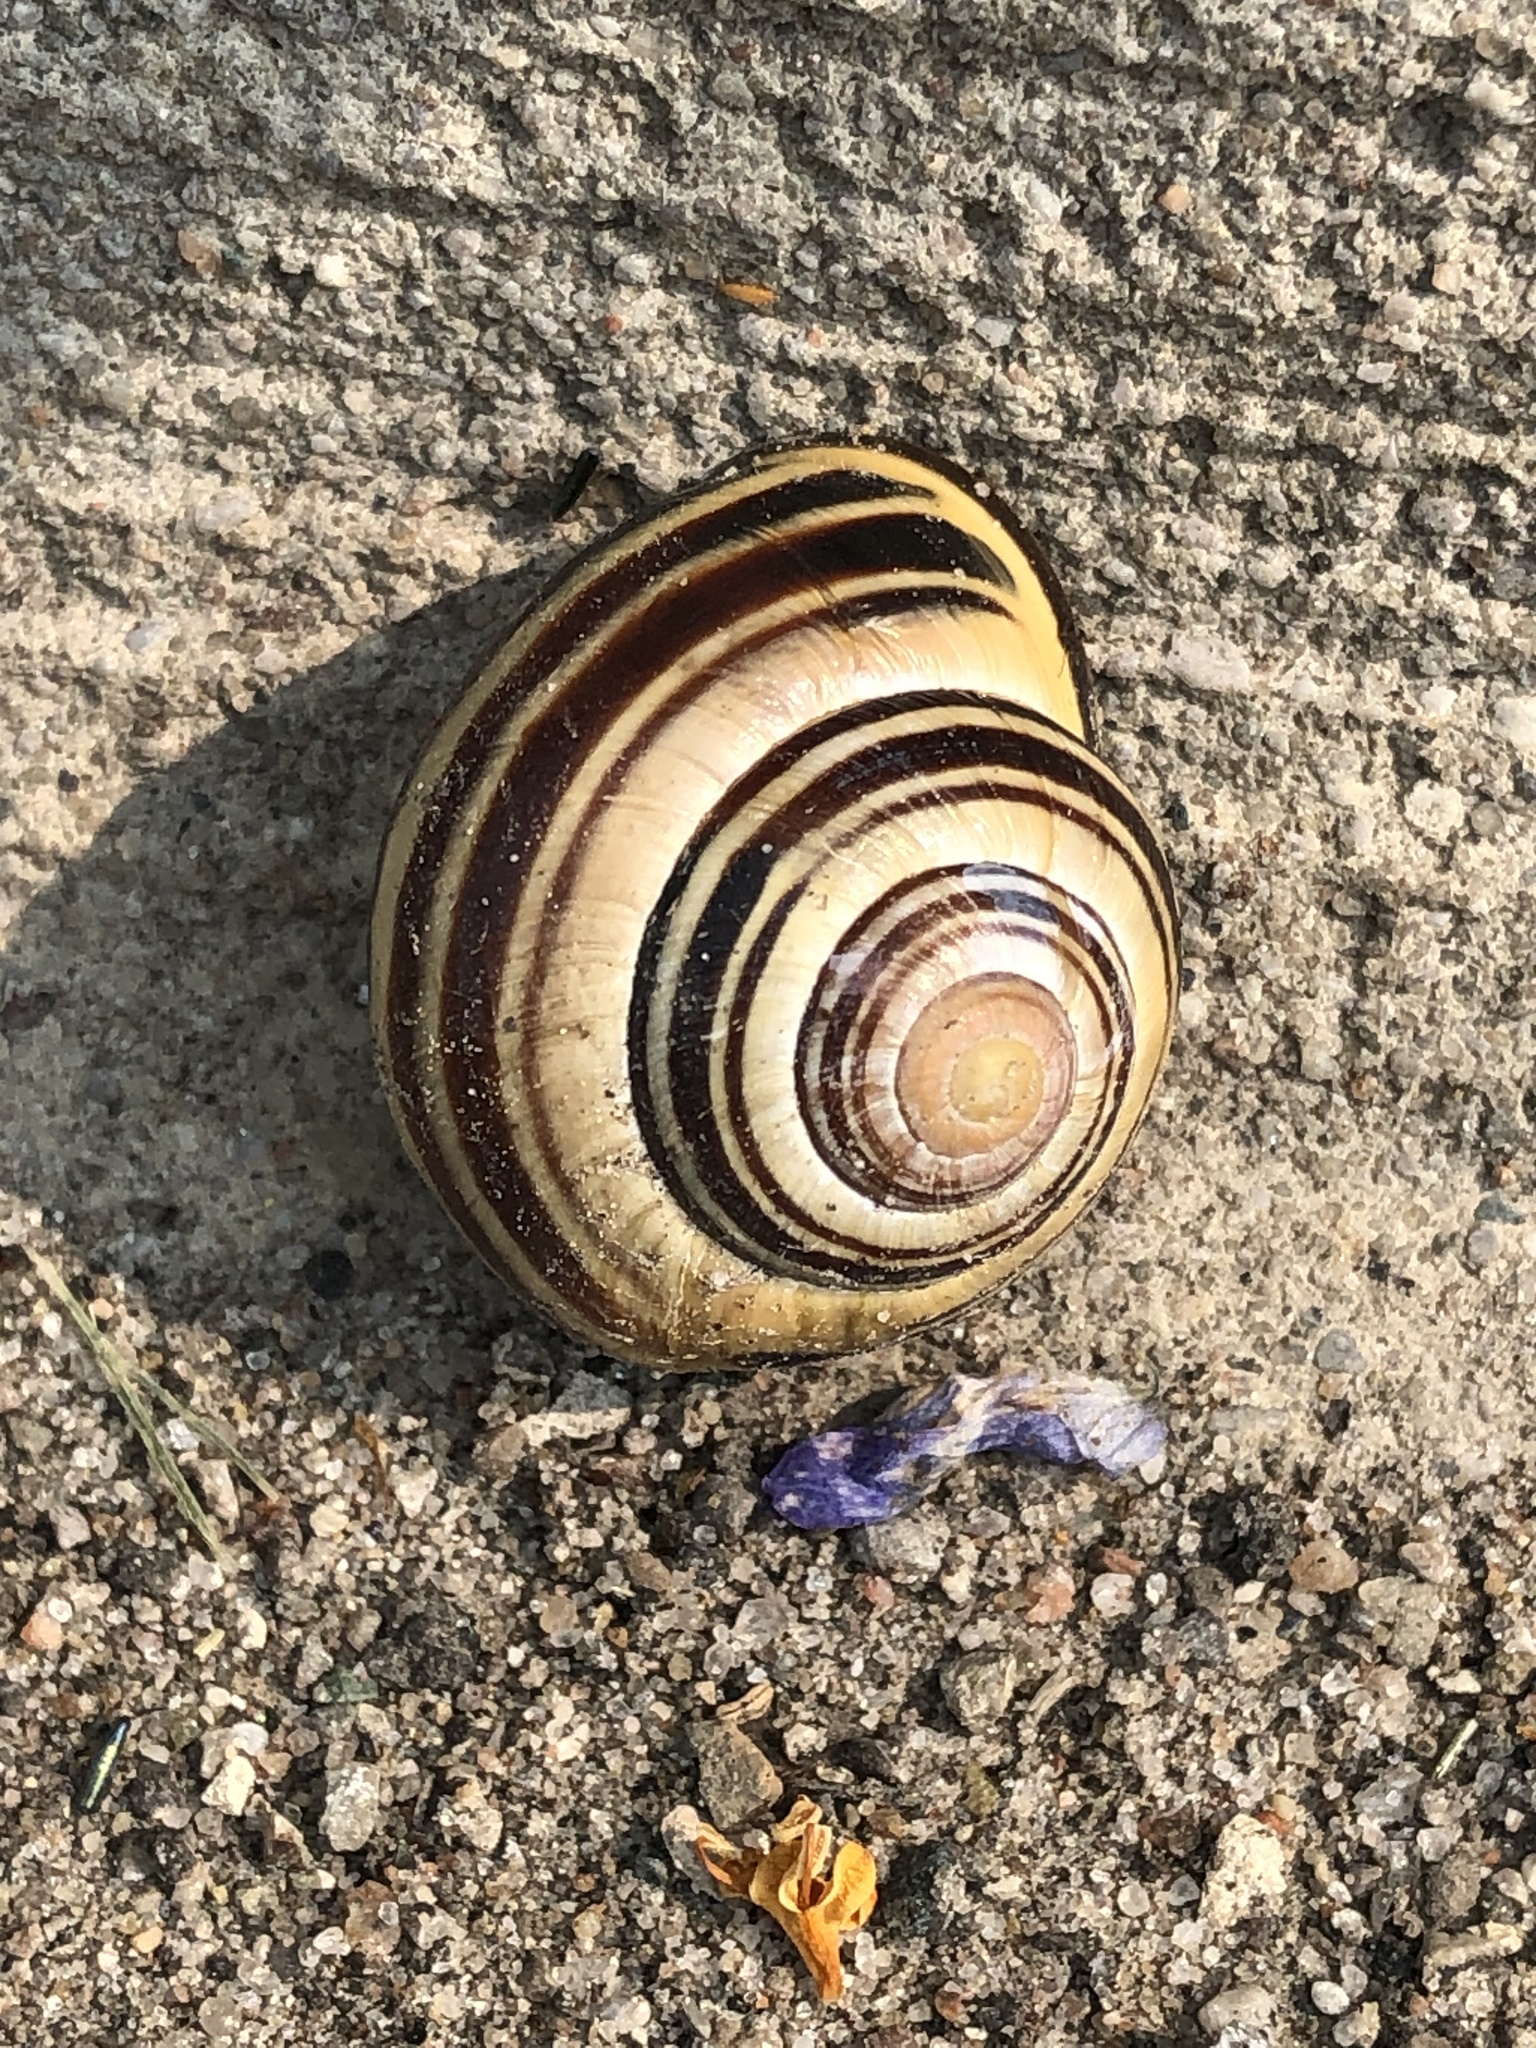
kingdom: Animalia
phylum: Mollusca
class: Gastropoda
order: Stylommatophora
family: Helicidae
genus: Cepaea
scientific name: Cepaea nemoralis
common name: Grovesnail
